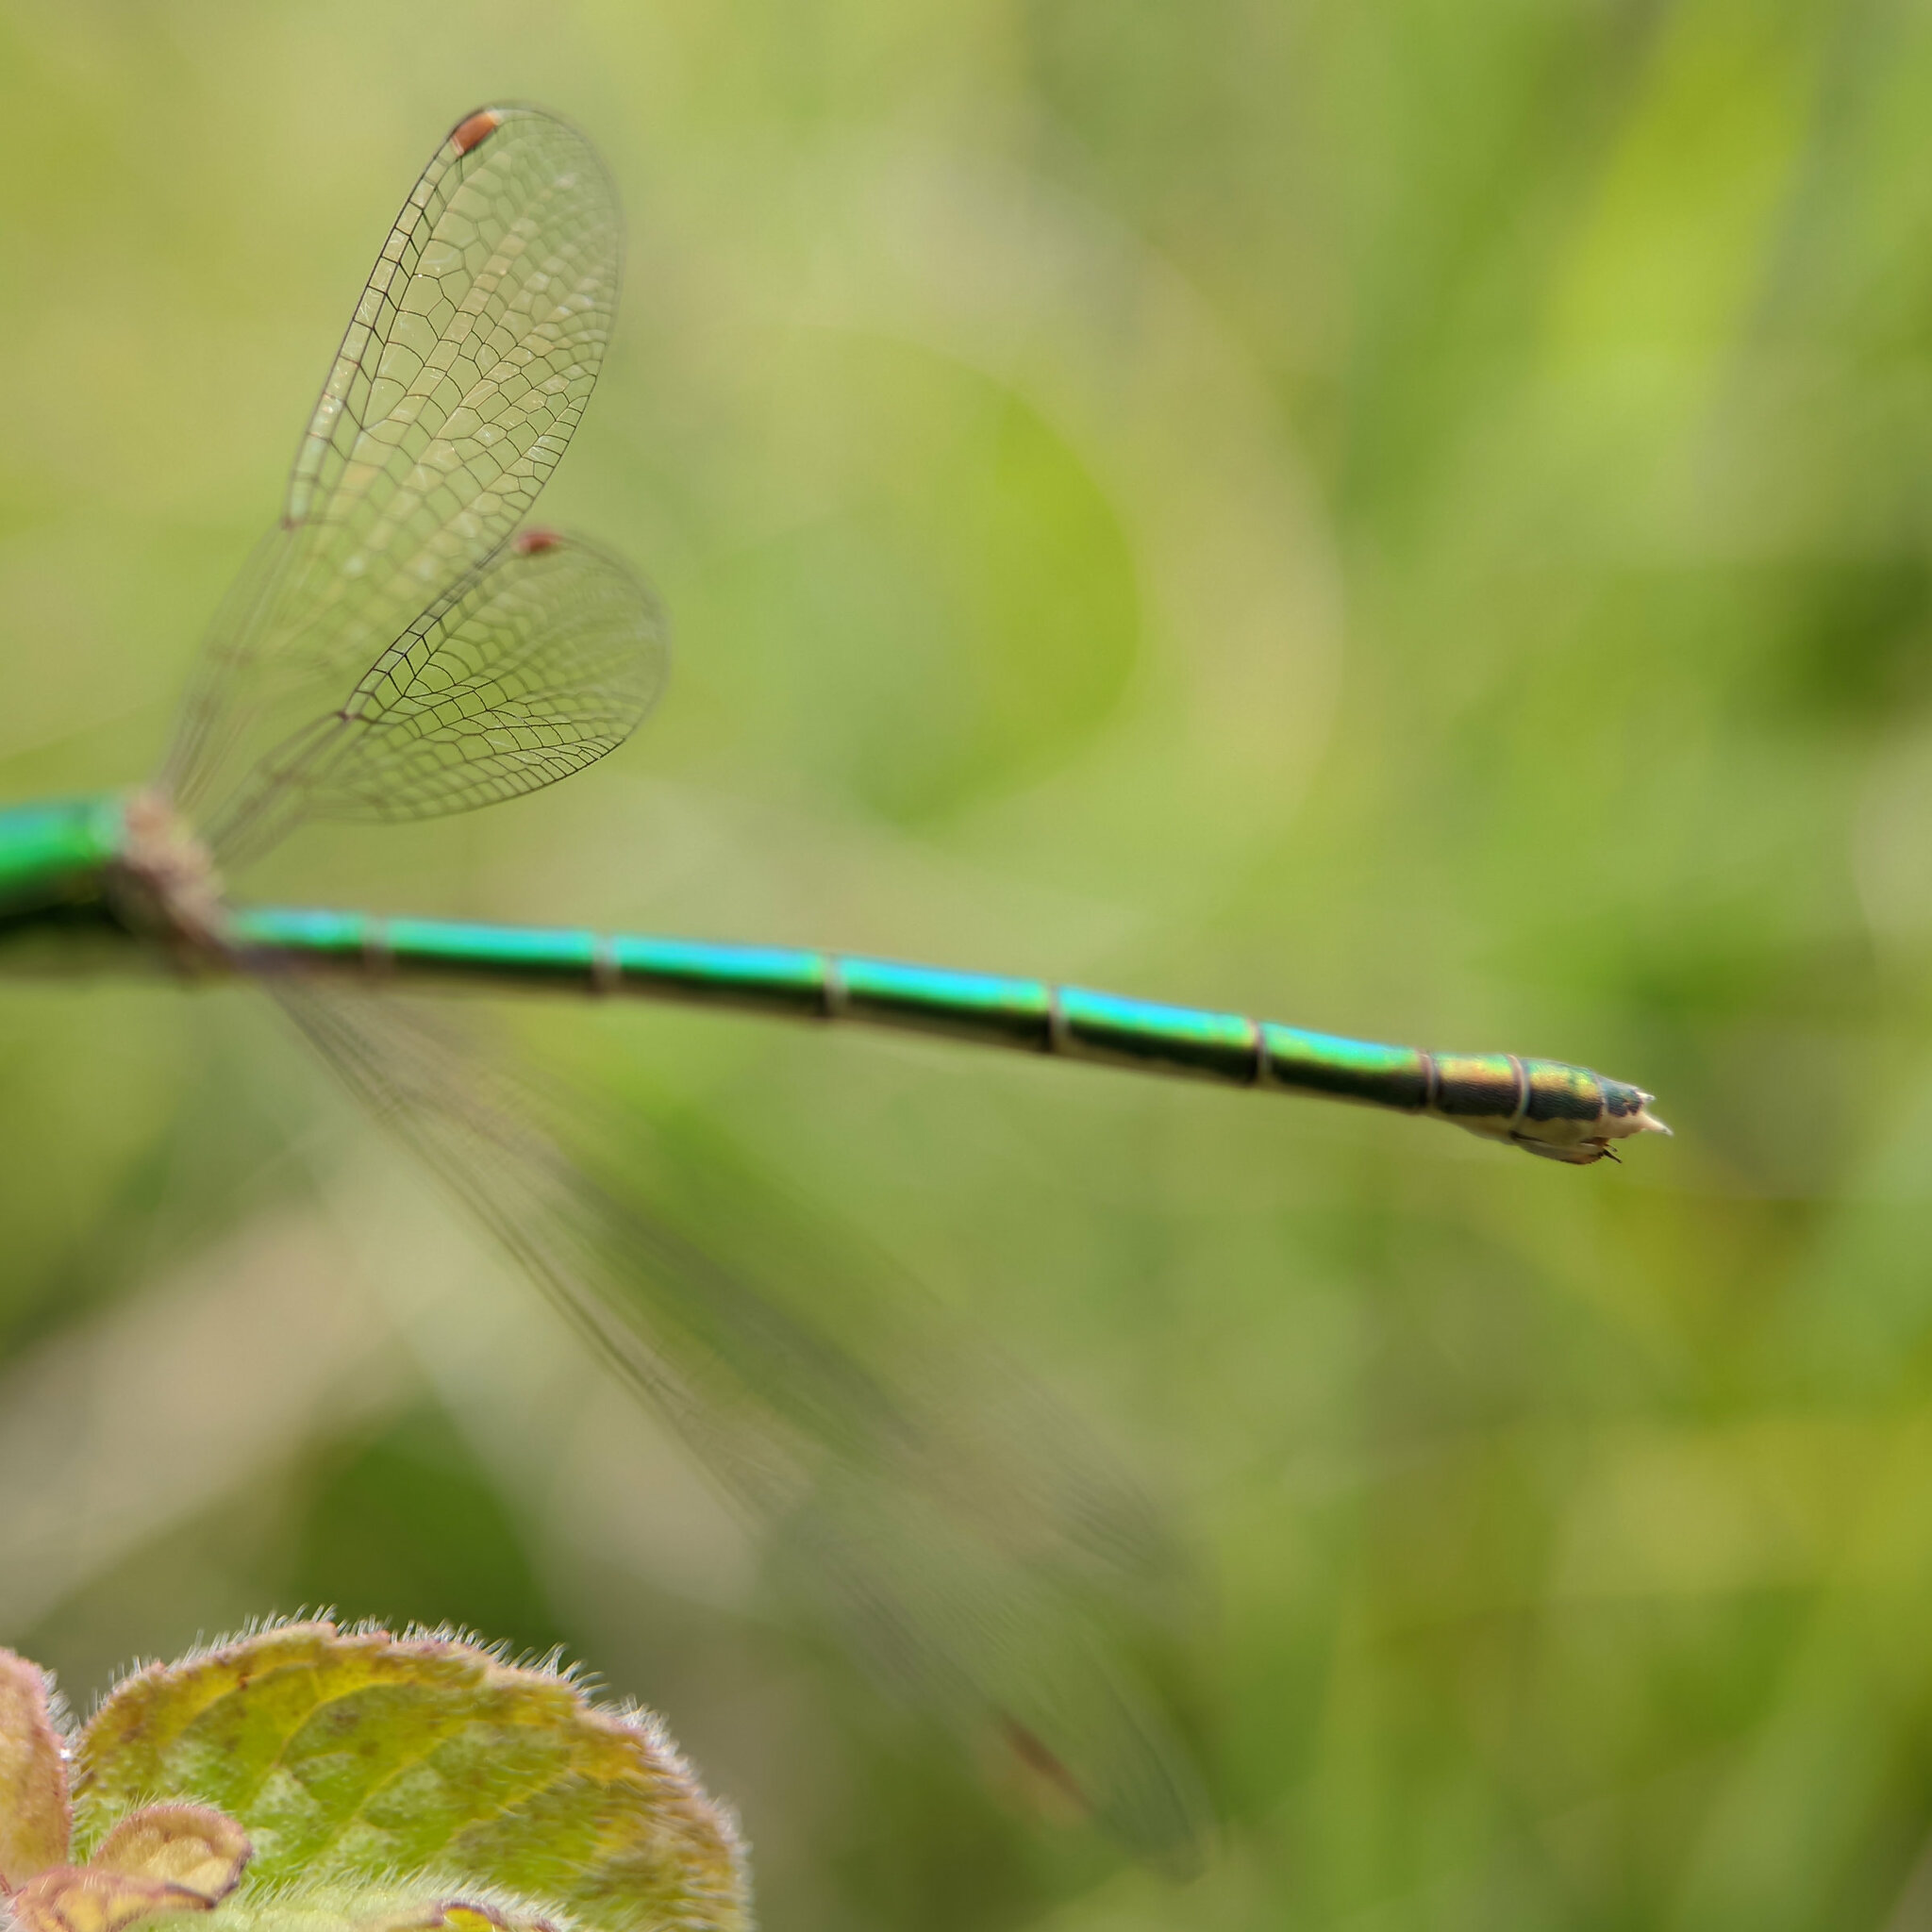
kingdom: Animalia
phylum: Arthropoda
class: Insecta
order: Odonata
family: Lestidae
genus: Lestes
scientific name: Lestes virens
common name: Small emerald spreadwing
